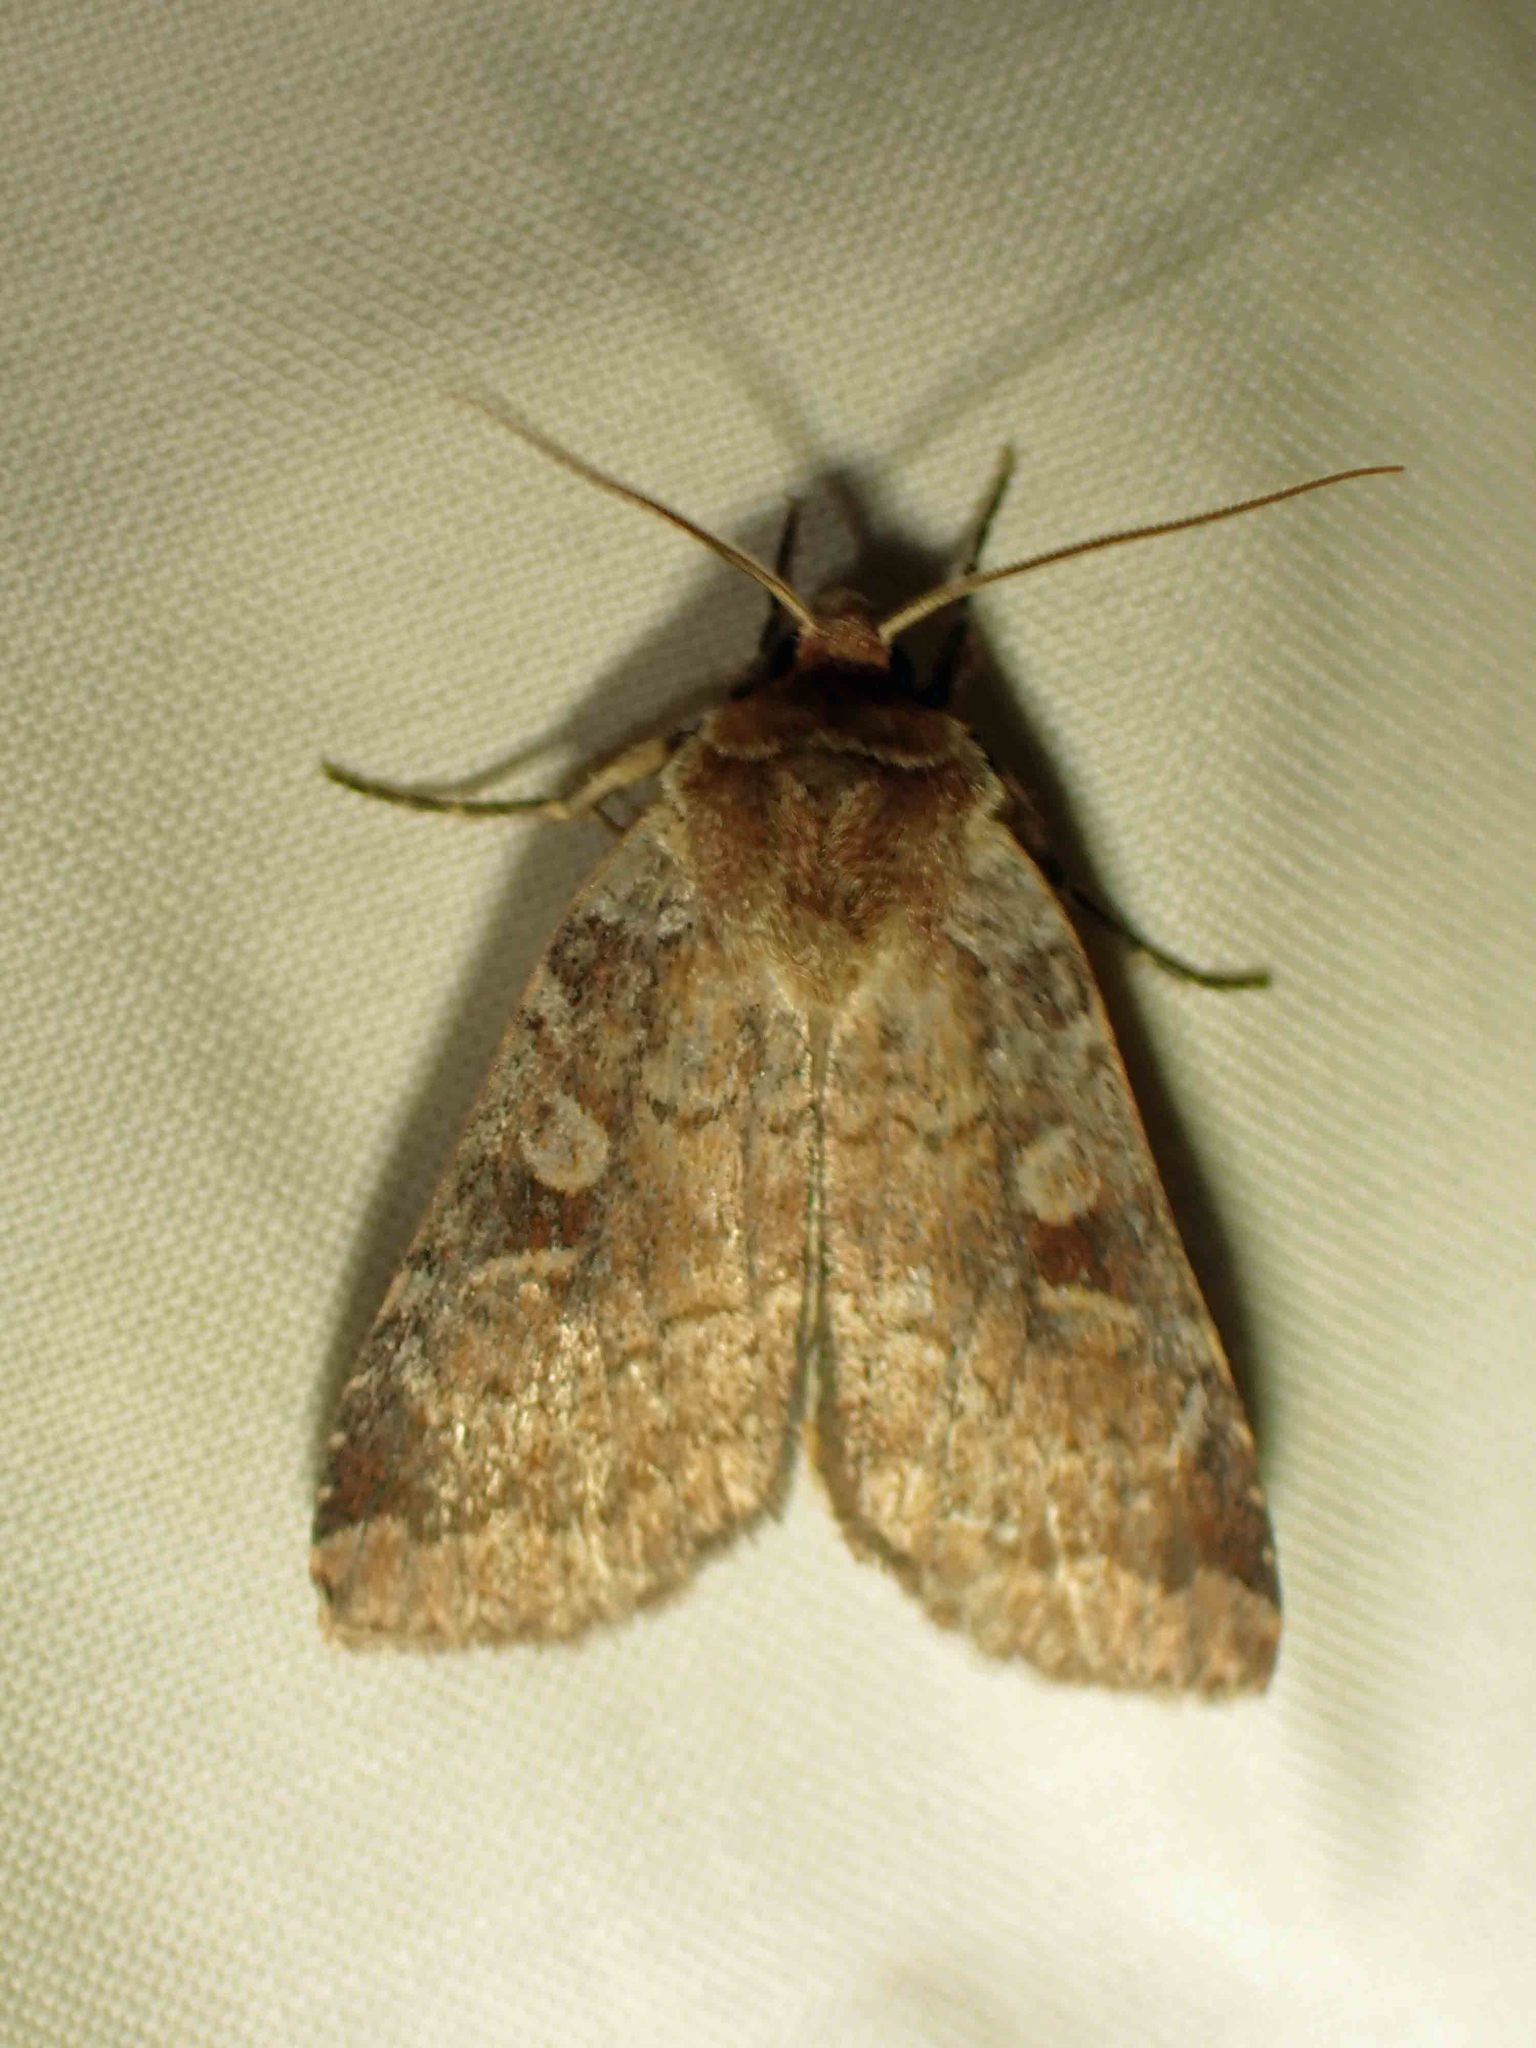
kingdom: Animalia
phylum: Arthropoda
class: Insecta
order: Lepidoptera
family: Noctuidae
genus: Lycophotia
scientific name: Lycophotia phyllophora
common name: Lycophotia moth
